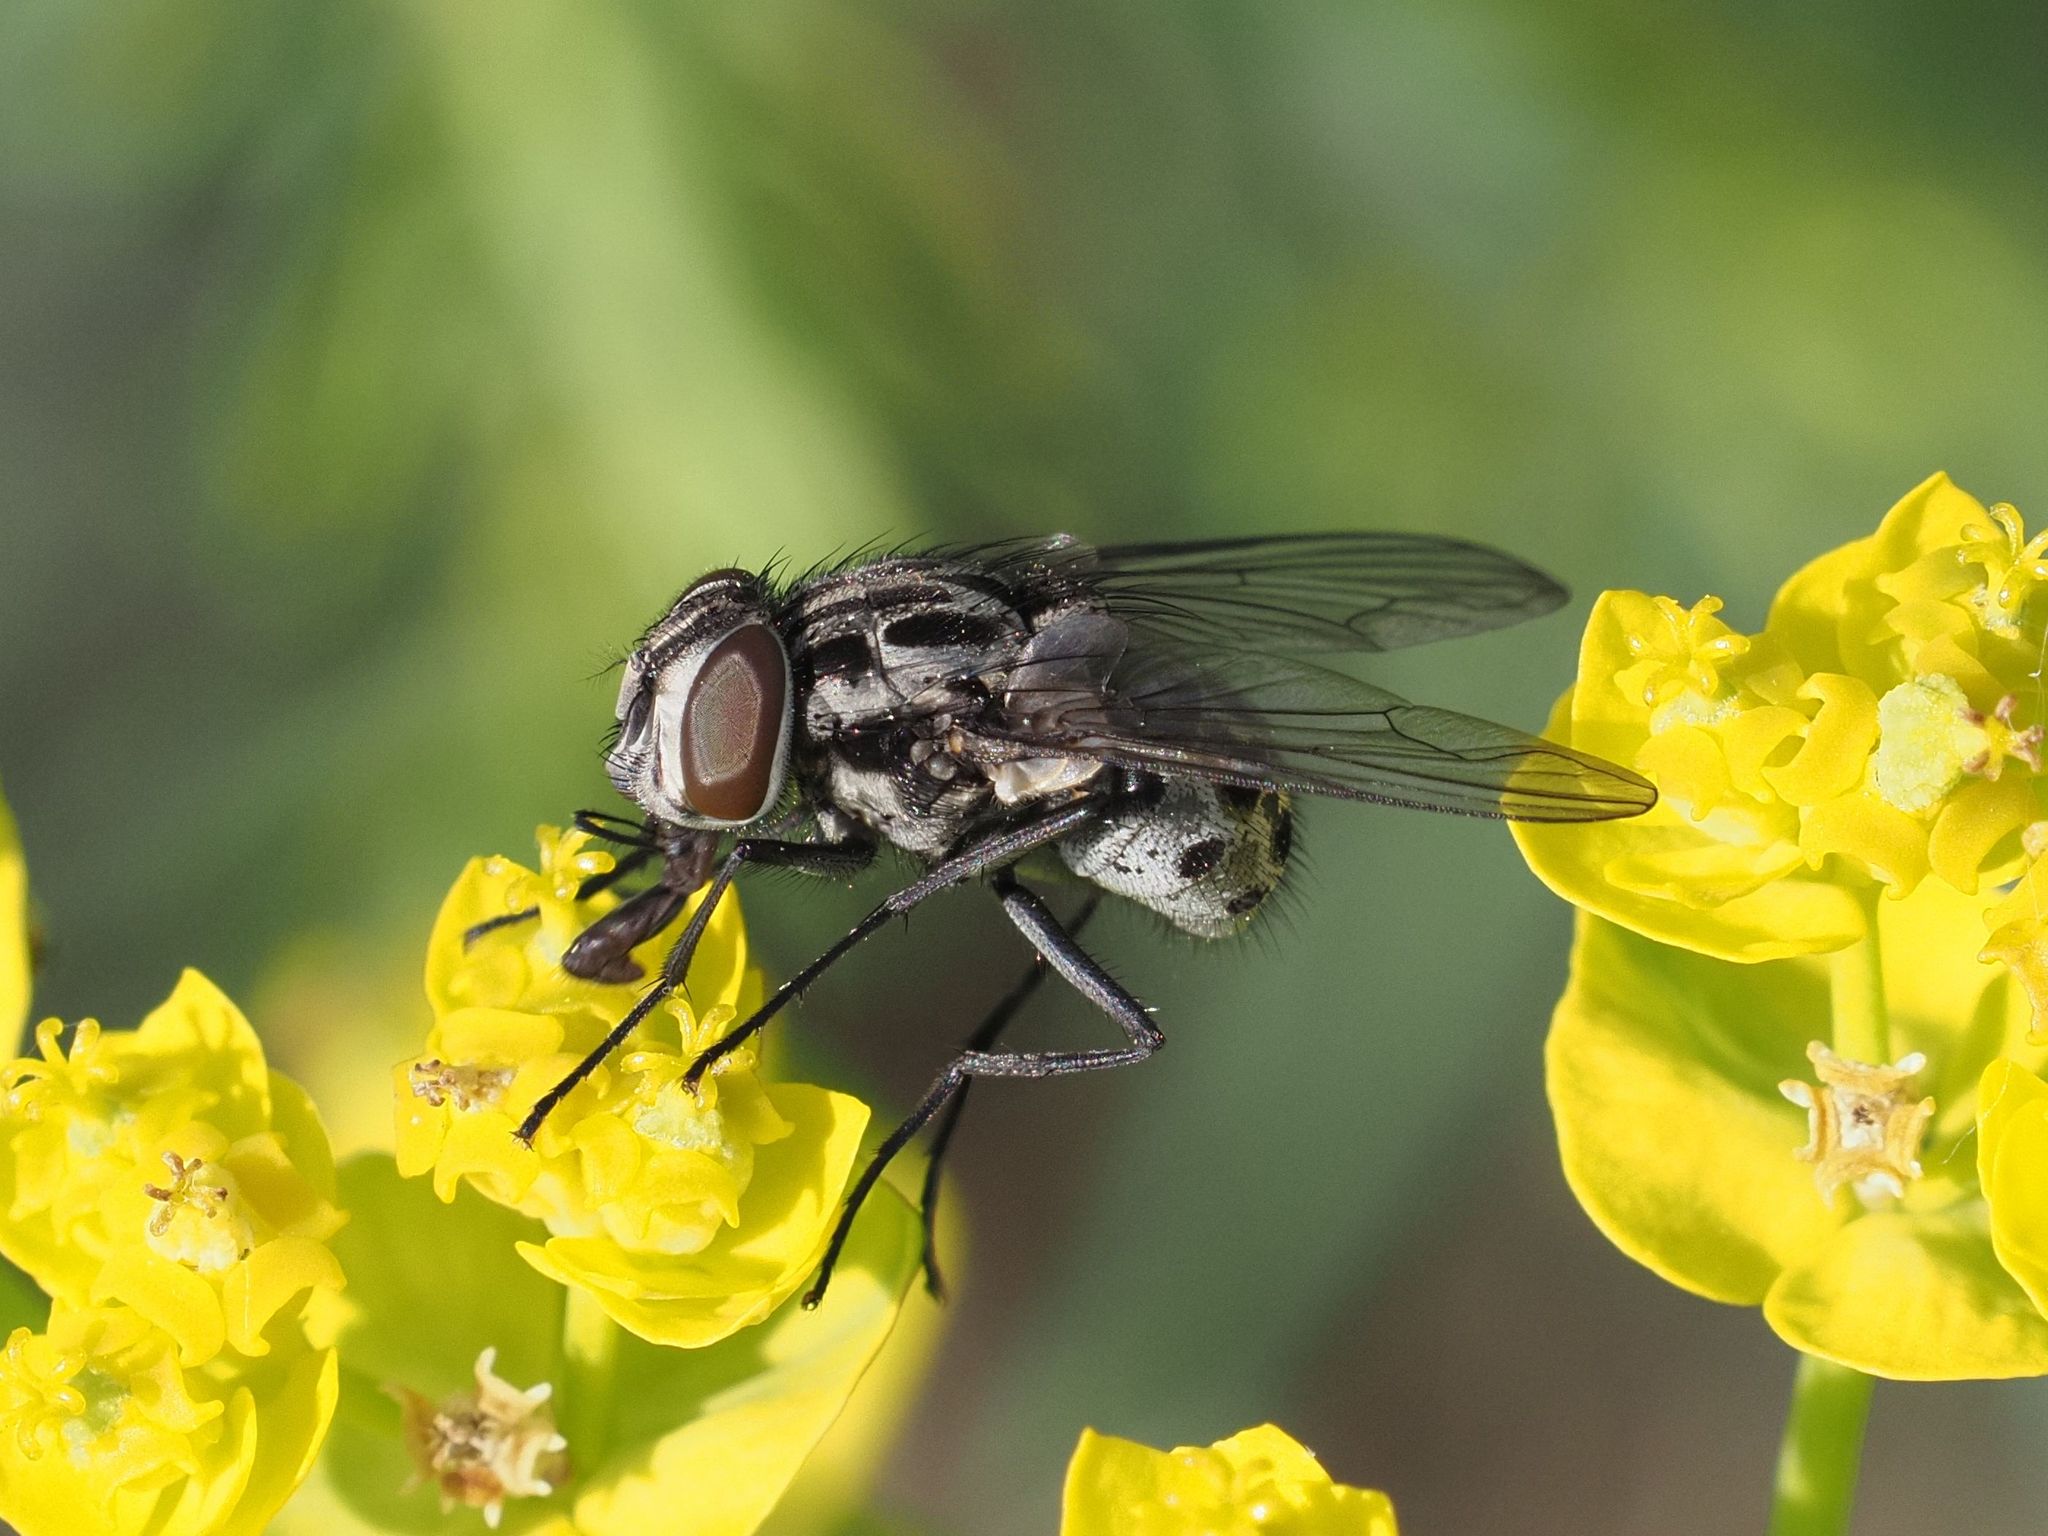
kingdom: Animalia
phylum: Arthropoda
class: Insecta
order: Diptera
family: Muscidae
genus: Graphomya
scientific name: Graphomya maculata
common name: Muscid fly
